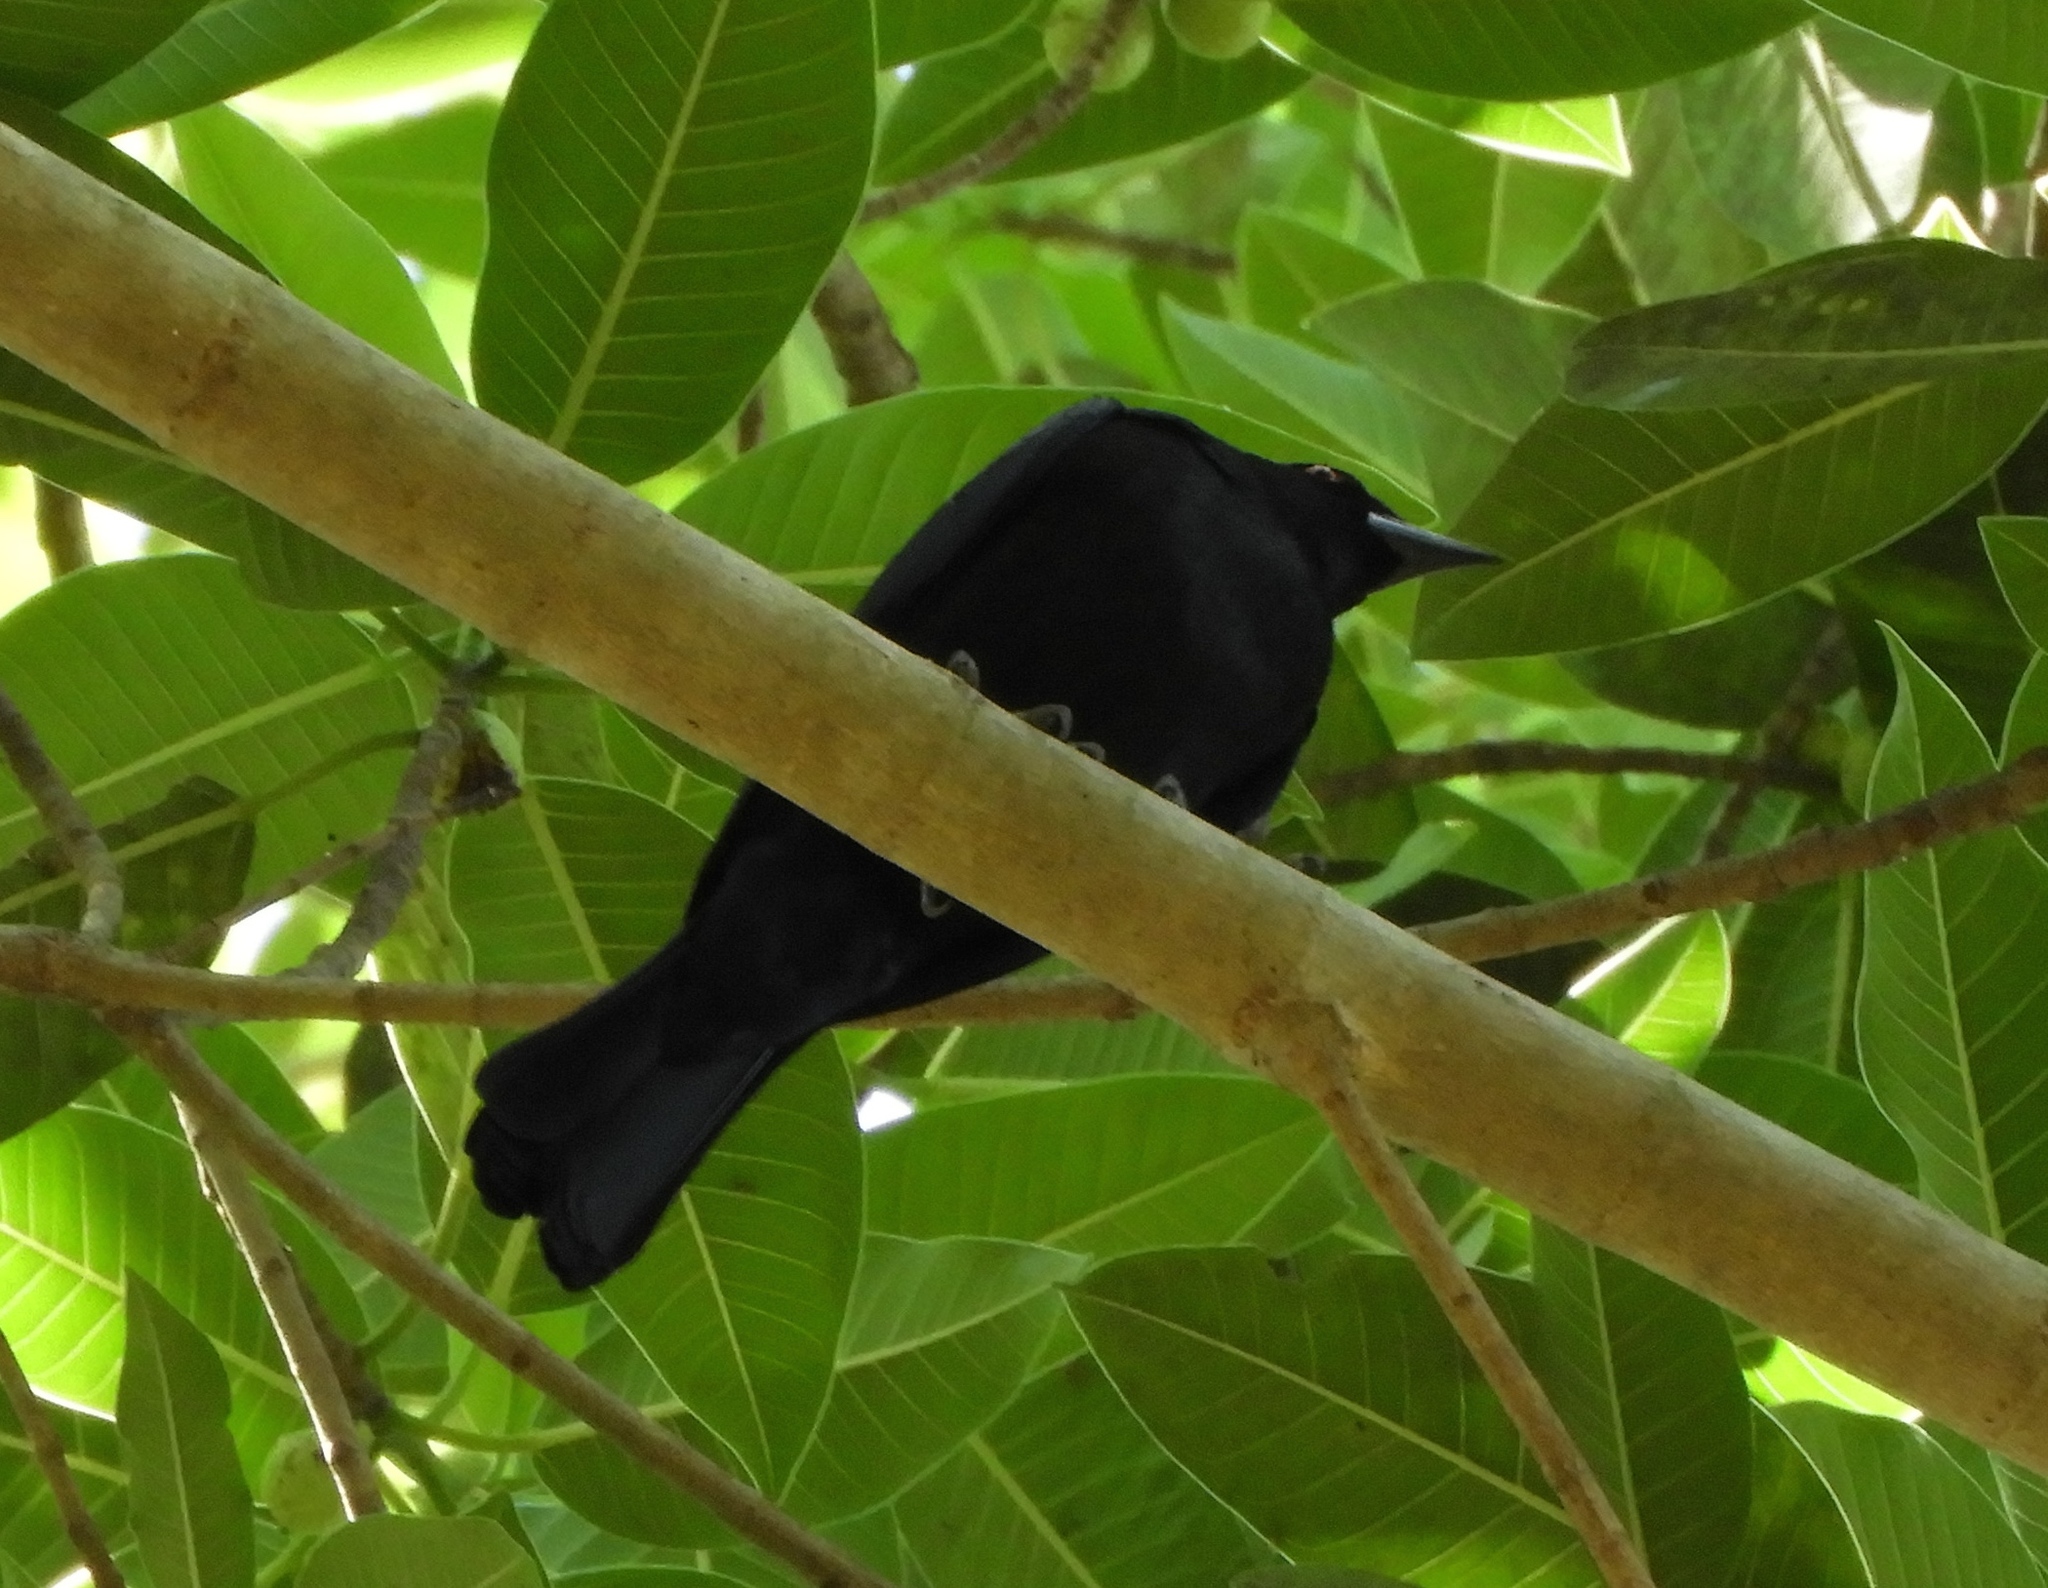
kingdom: Animalia
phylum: Chordata
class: Aves
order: Passeriformes
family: Icteridae
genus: Molothrus
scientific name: Molothrus aeneus
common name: Bronzed cowbird
